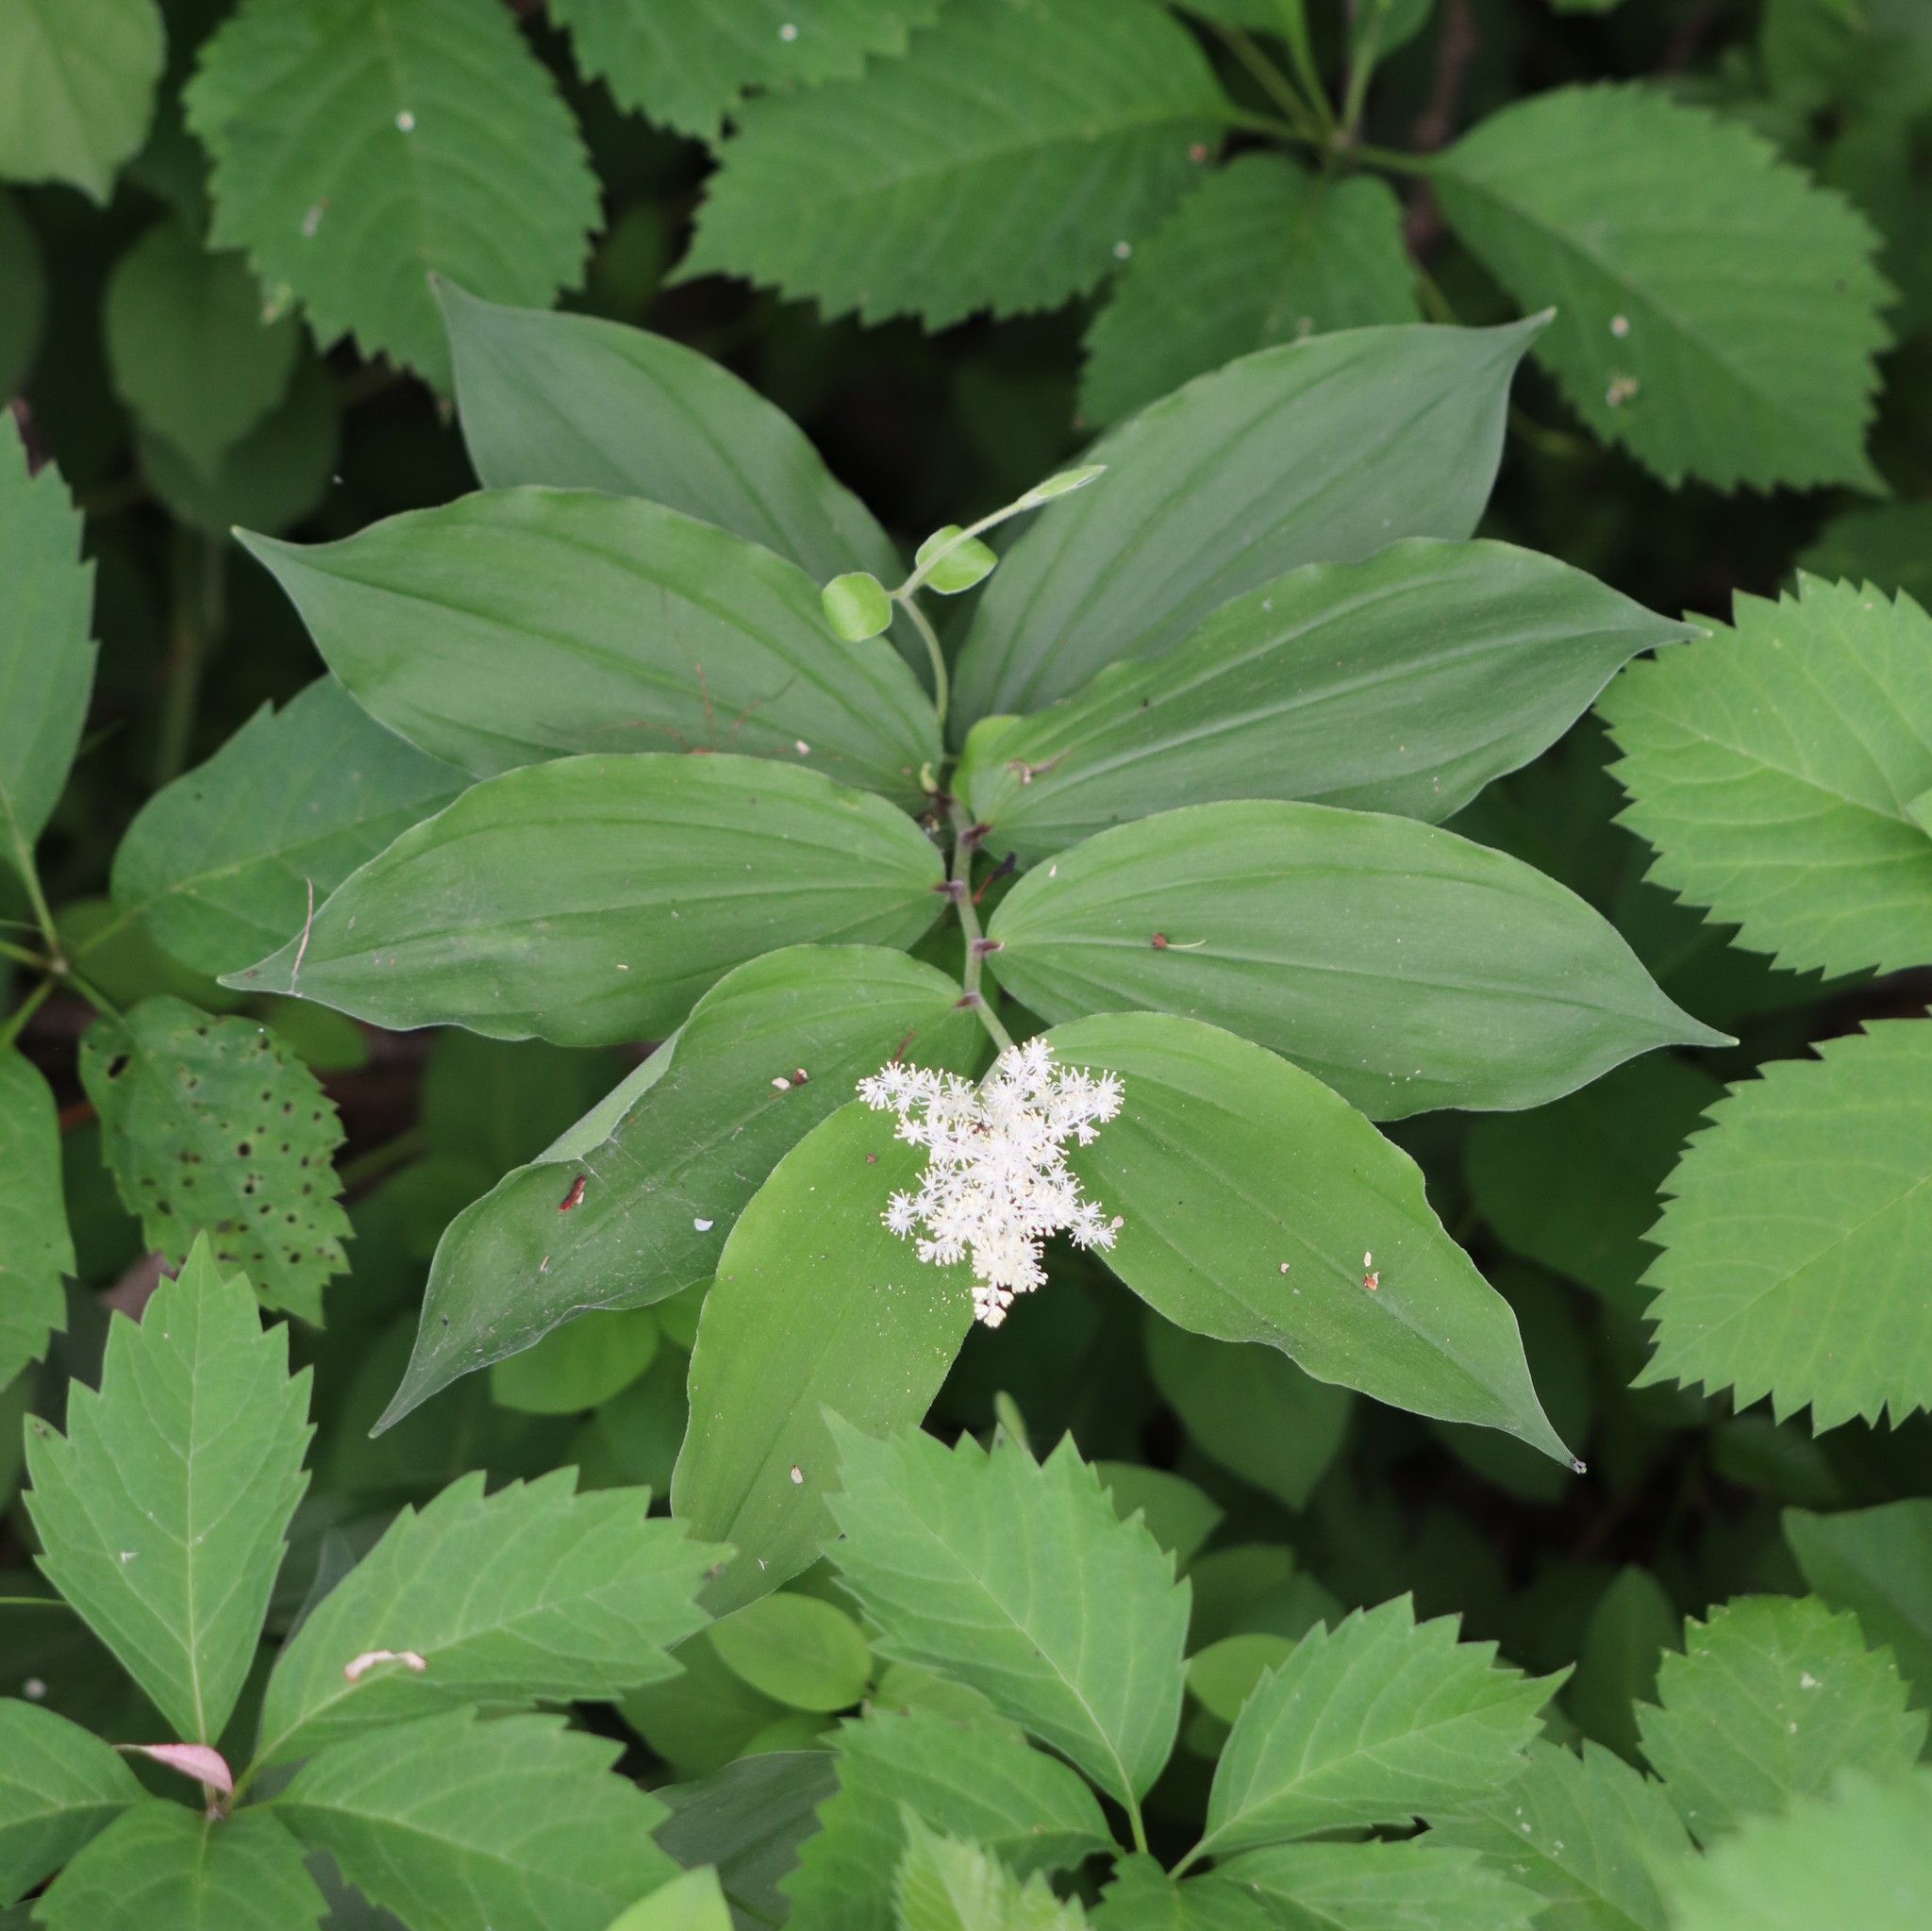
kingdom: Plantae
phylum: Tracheophyta
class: Liliopsida
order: Asparagales
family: Asparagaceae
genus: Maianthemum
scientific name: Maianthemum racemosum
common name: False spikenard
